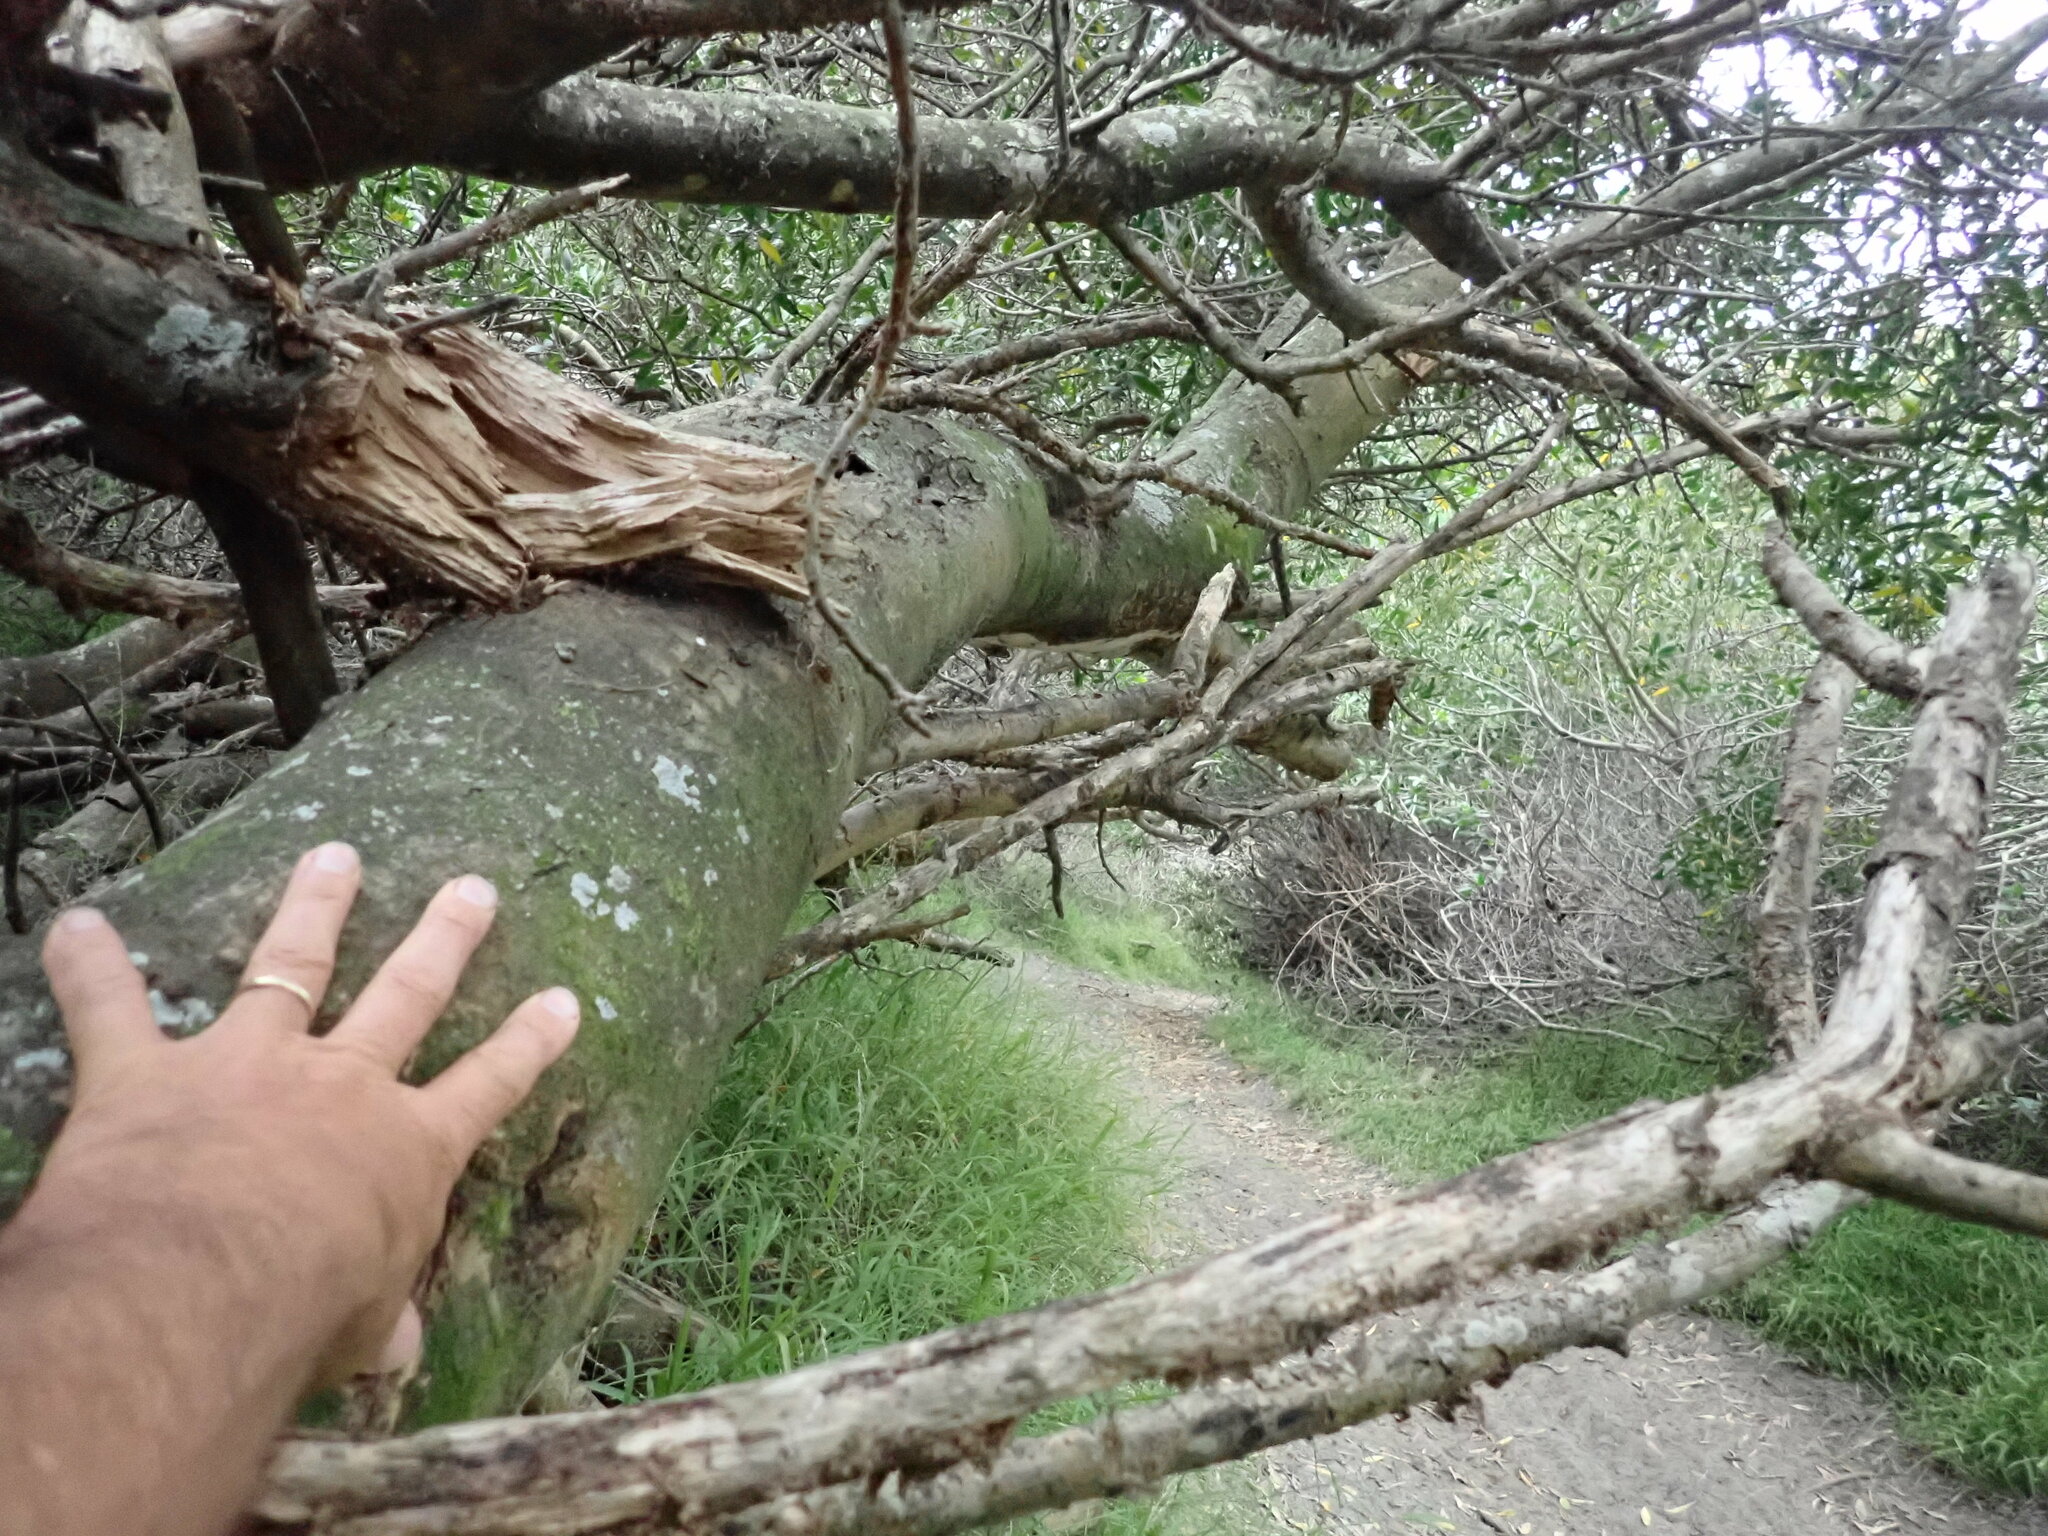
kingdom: Plantae
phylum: Tracheophyta
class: Magnoliopsida
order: Fabales
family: Fabaceae
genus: Acacia
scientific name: Acacia longifolia
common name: Sydney golden wattle
